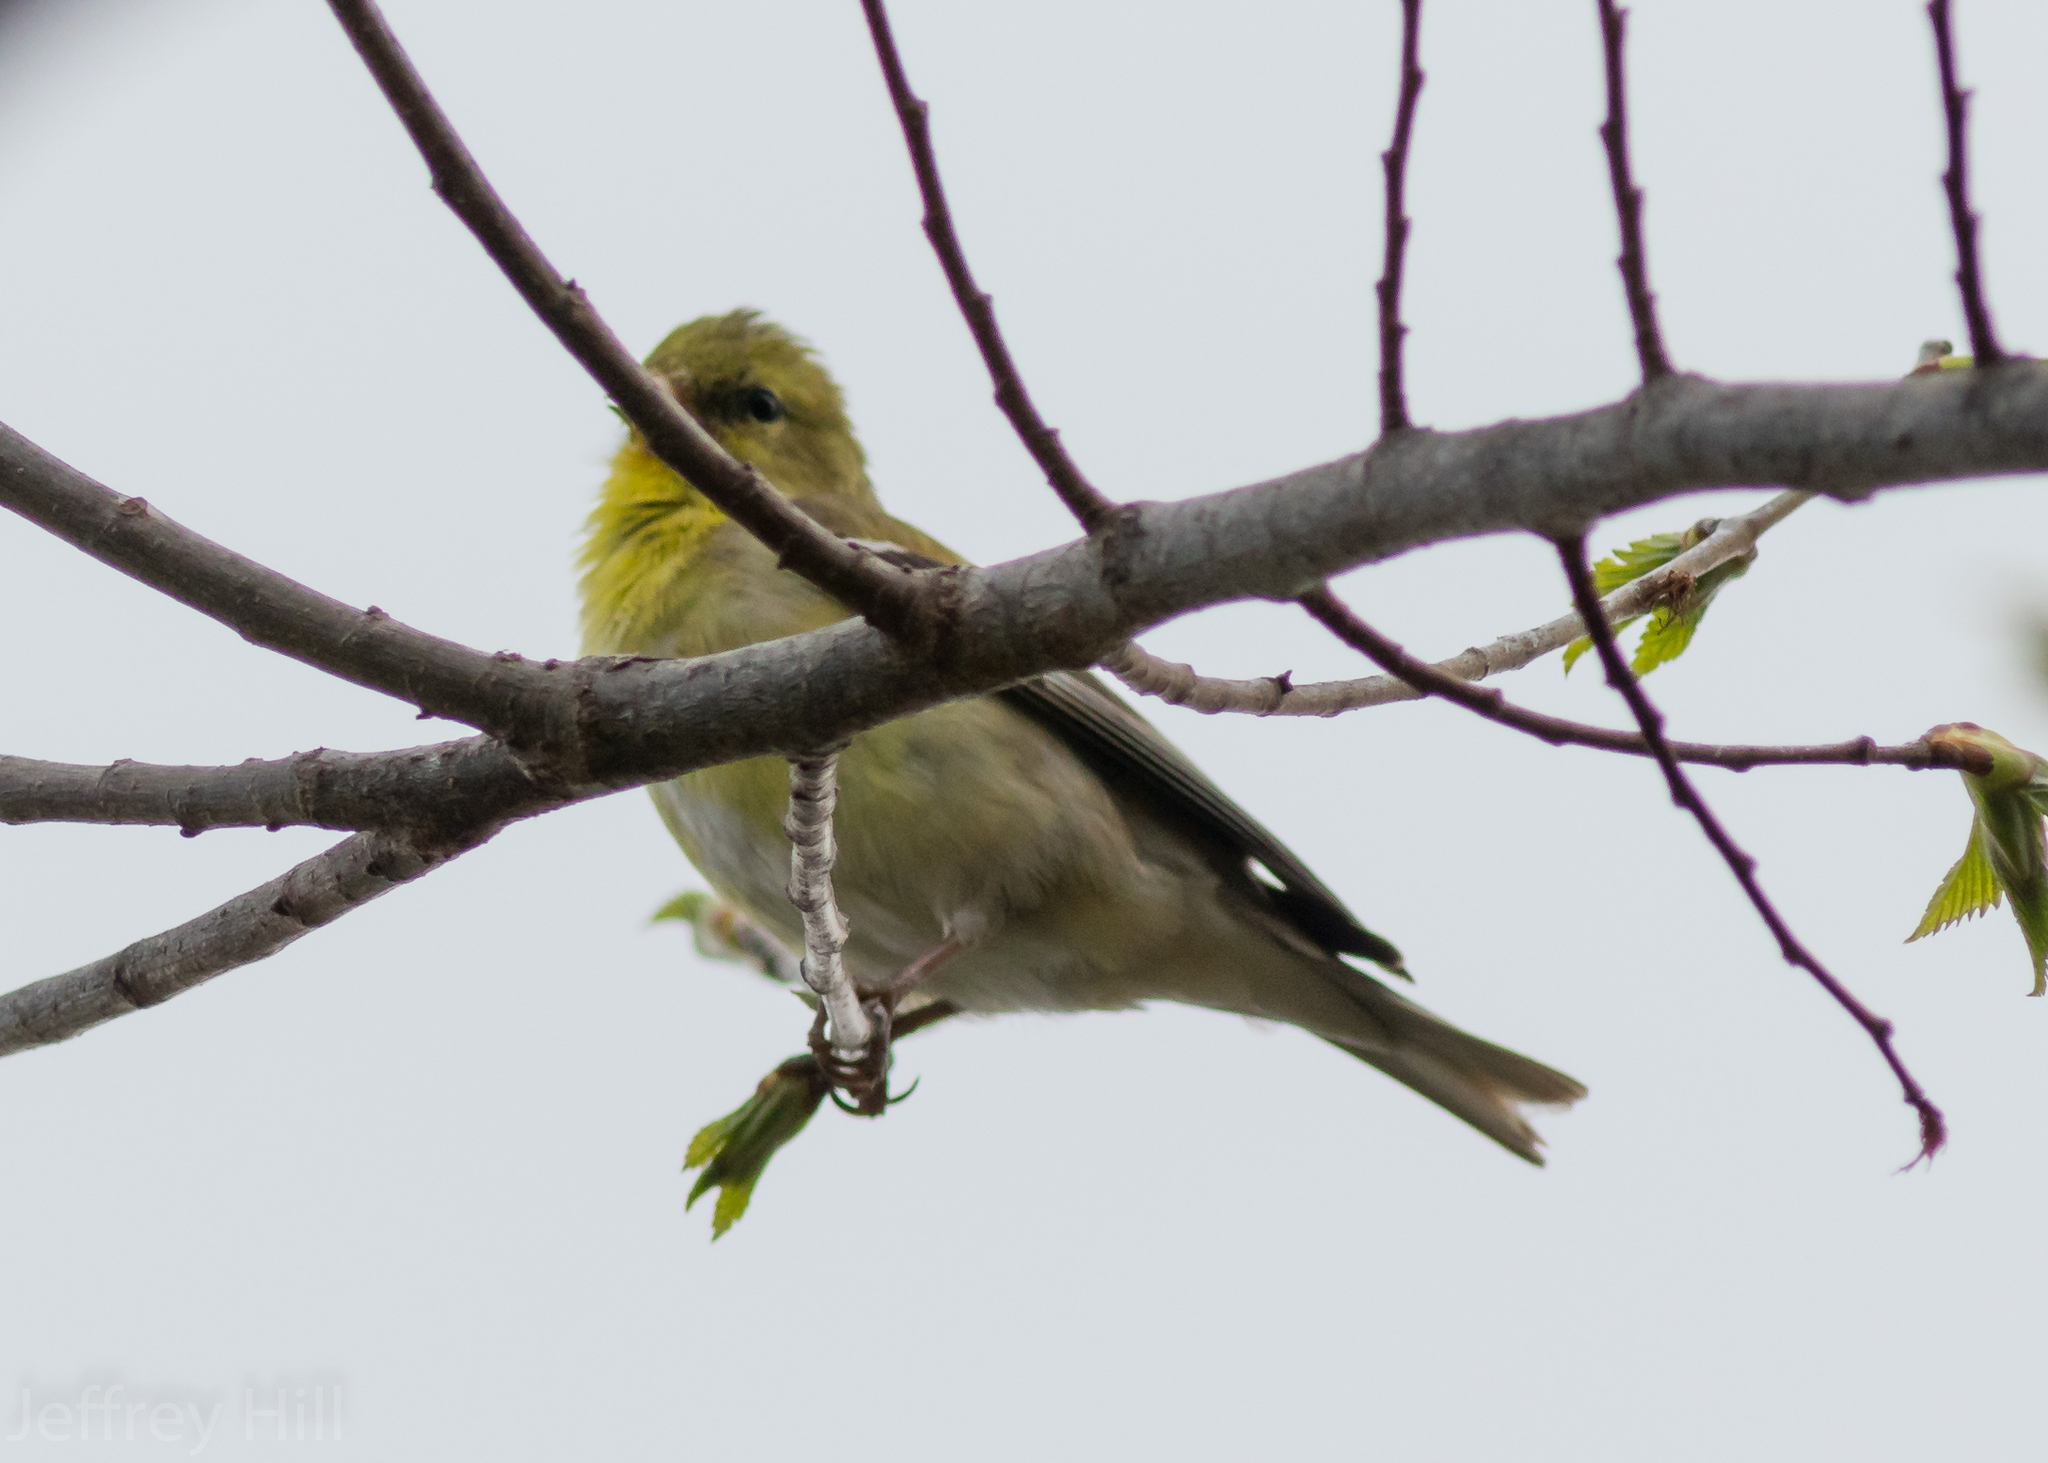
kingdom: Animalia
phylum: Chordata
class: Aves
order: Passeriformes
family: Fringillidae
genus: Spinus
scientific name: Spinus tristis
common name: American goldfinch
